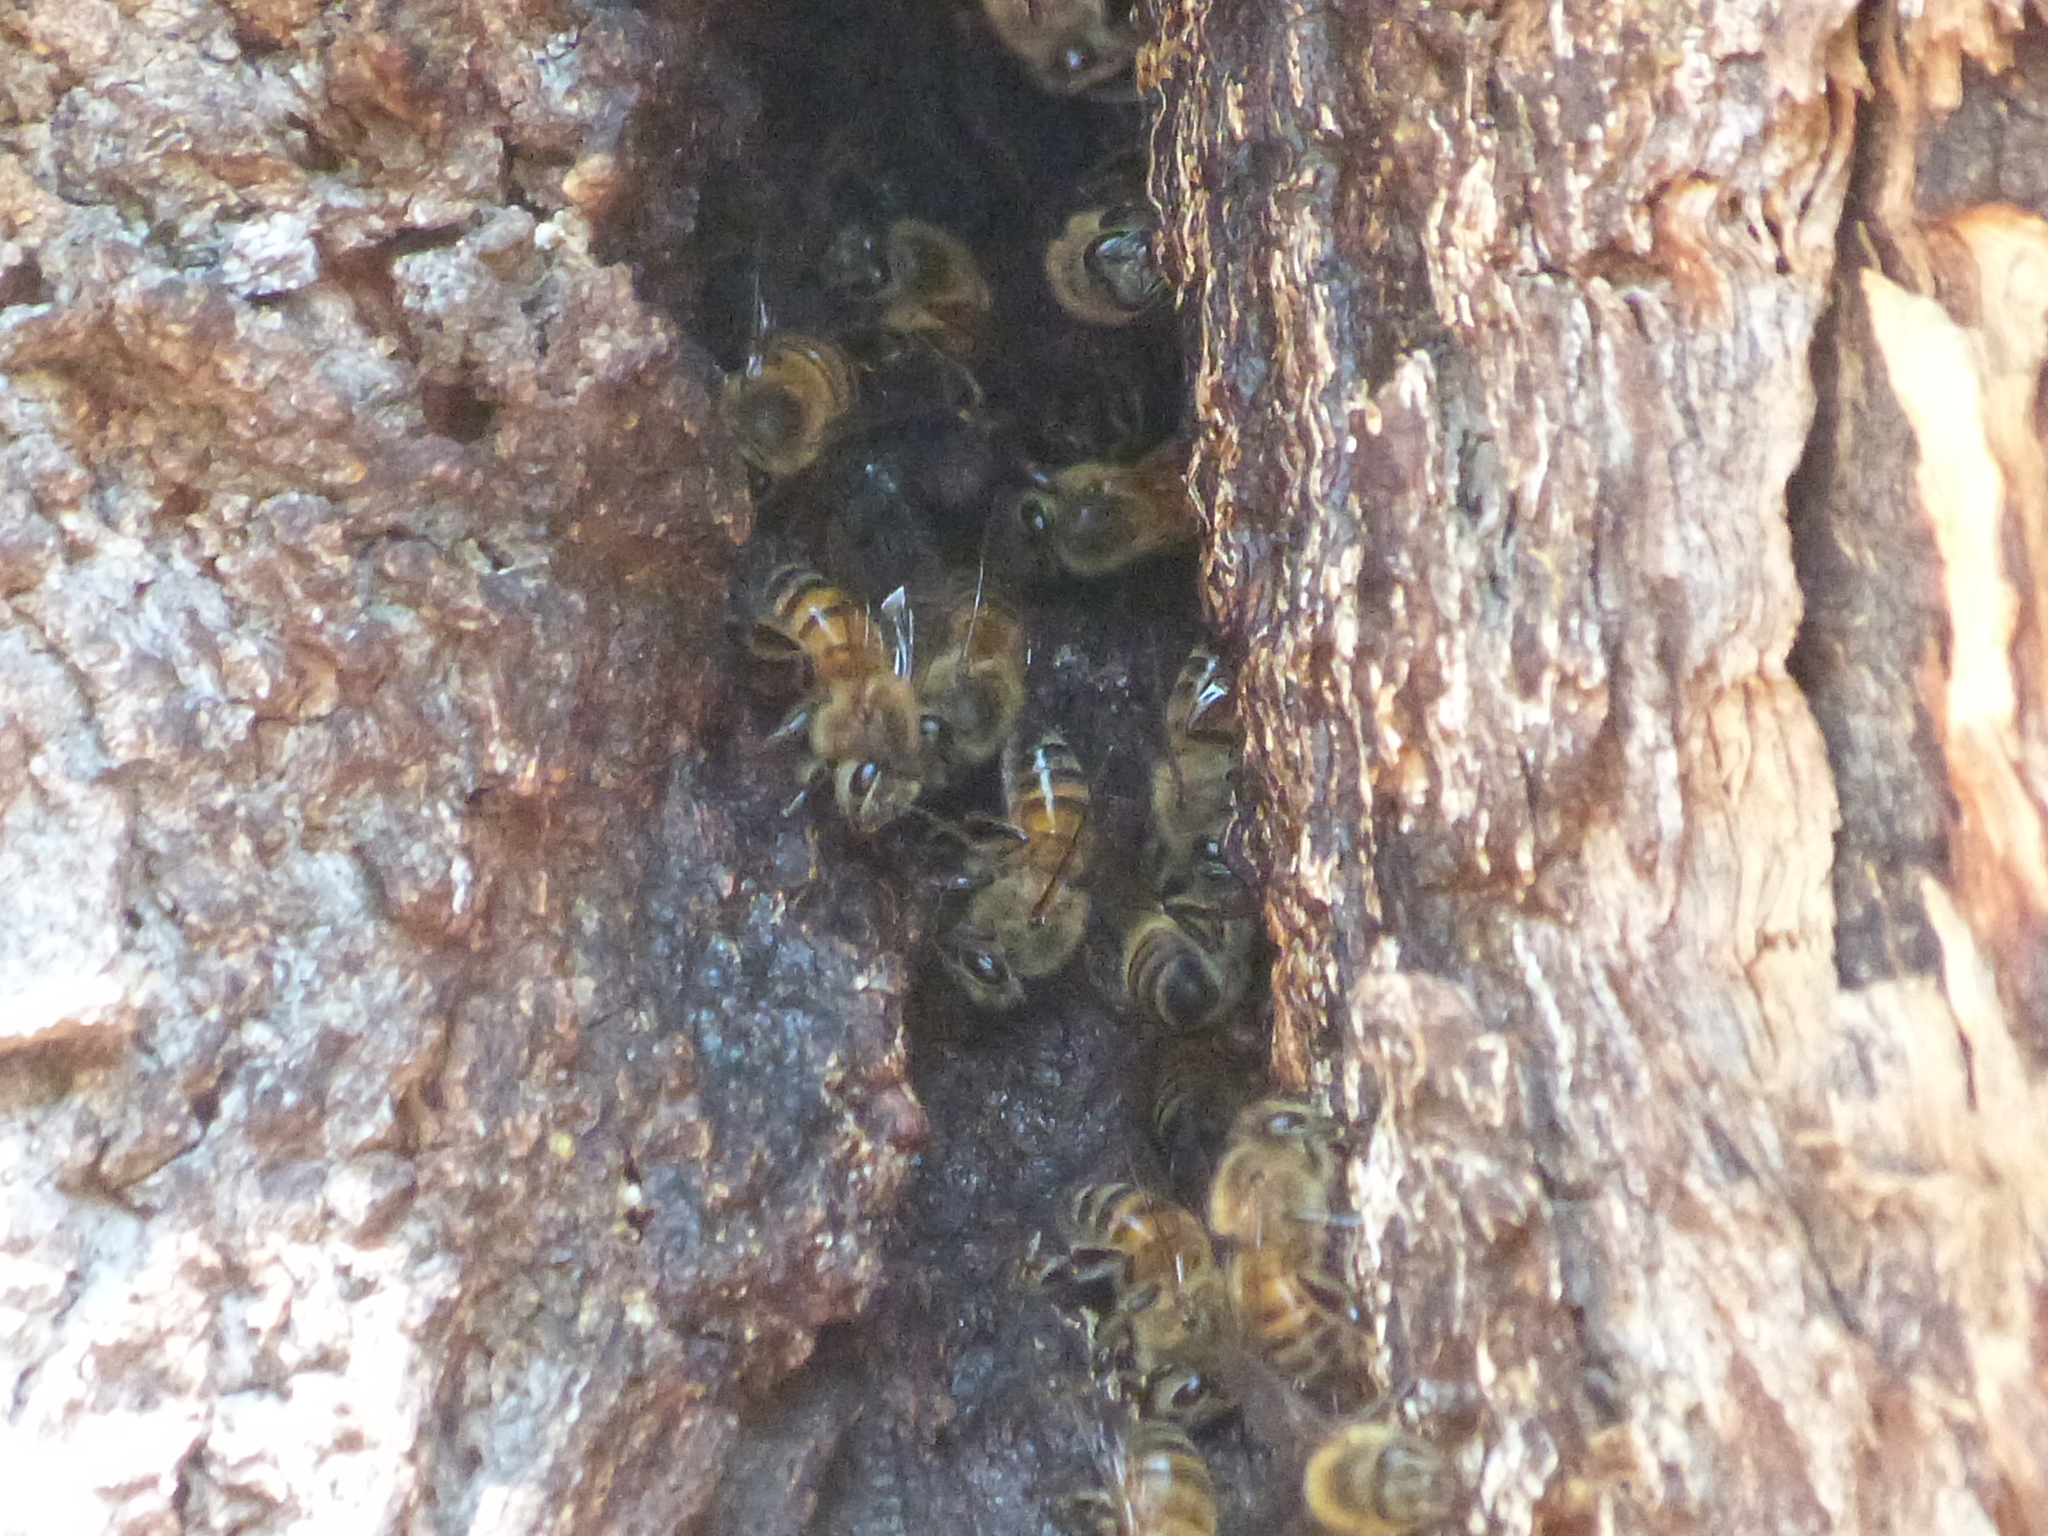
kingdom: Animalia
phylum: Arthropoda
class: Insecta
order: Hymenoptera
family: Apidae
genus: Apis
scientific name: Apis mellifera
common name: Honey bee
